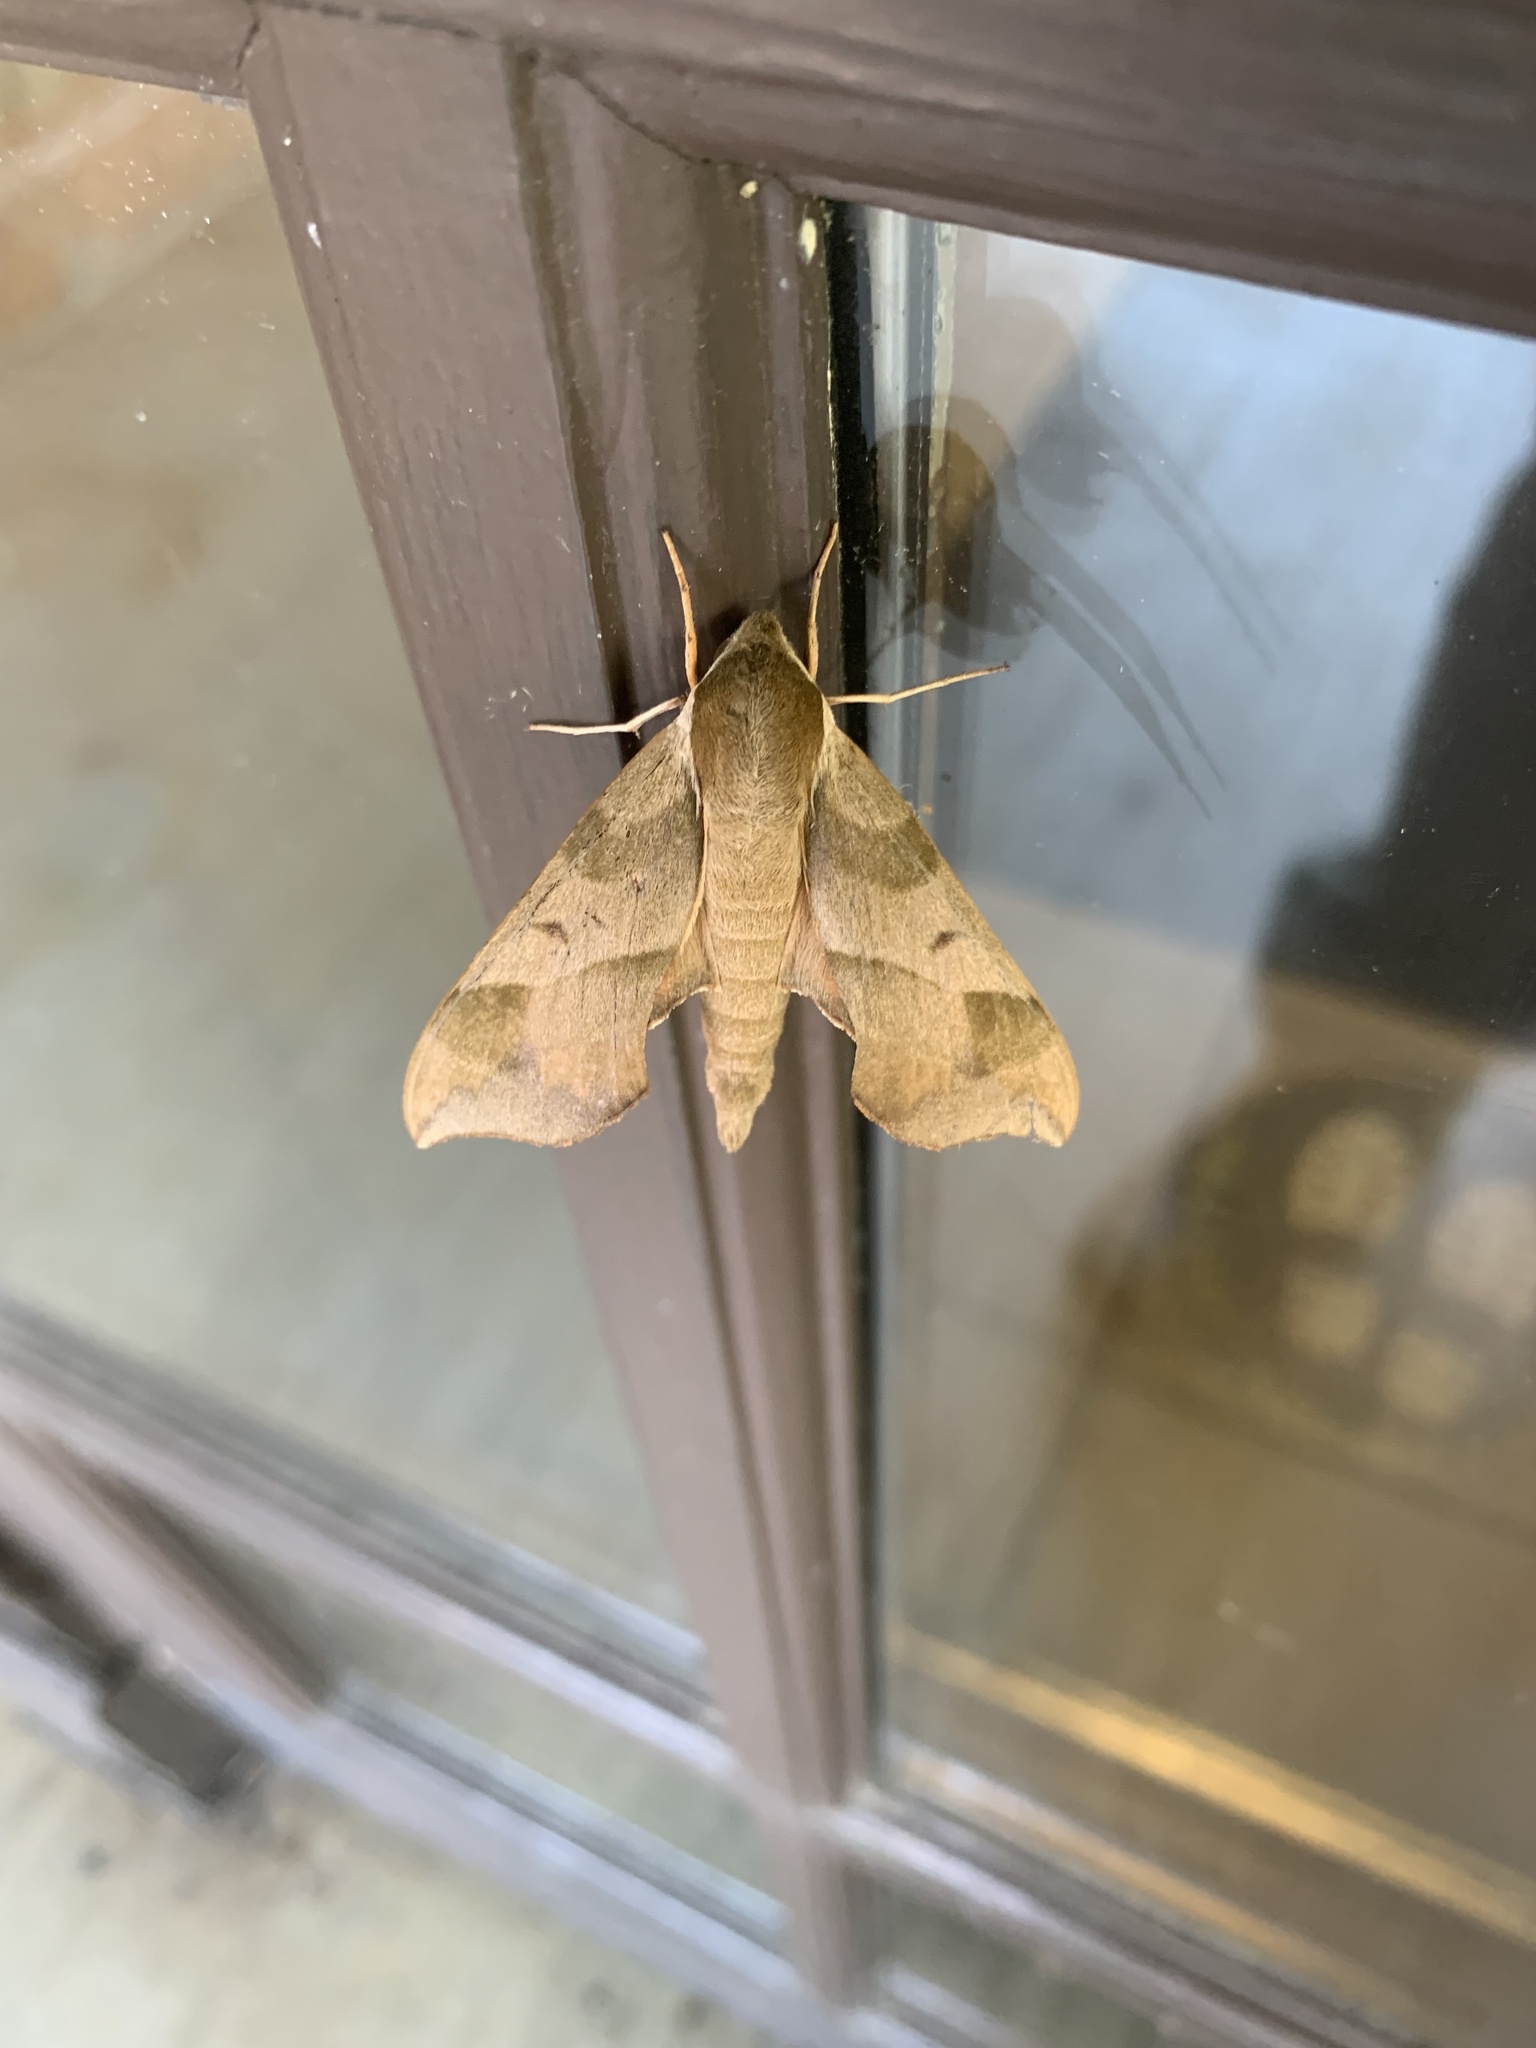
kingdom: Animalia
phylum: Arthropoda
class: Insecta
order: Lepidoptera
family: Sphingidae
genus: Darapsa
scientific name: Darapsa myron
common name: Hog sphinx
